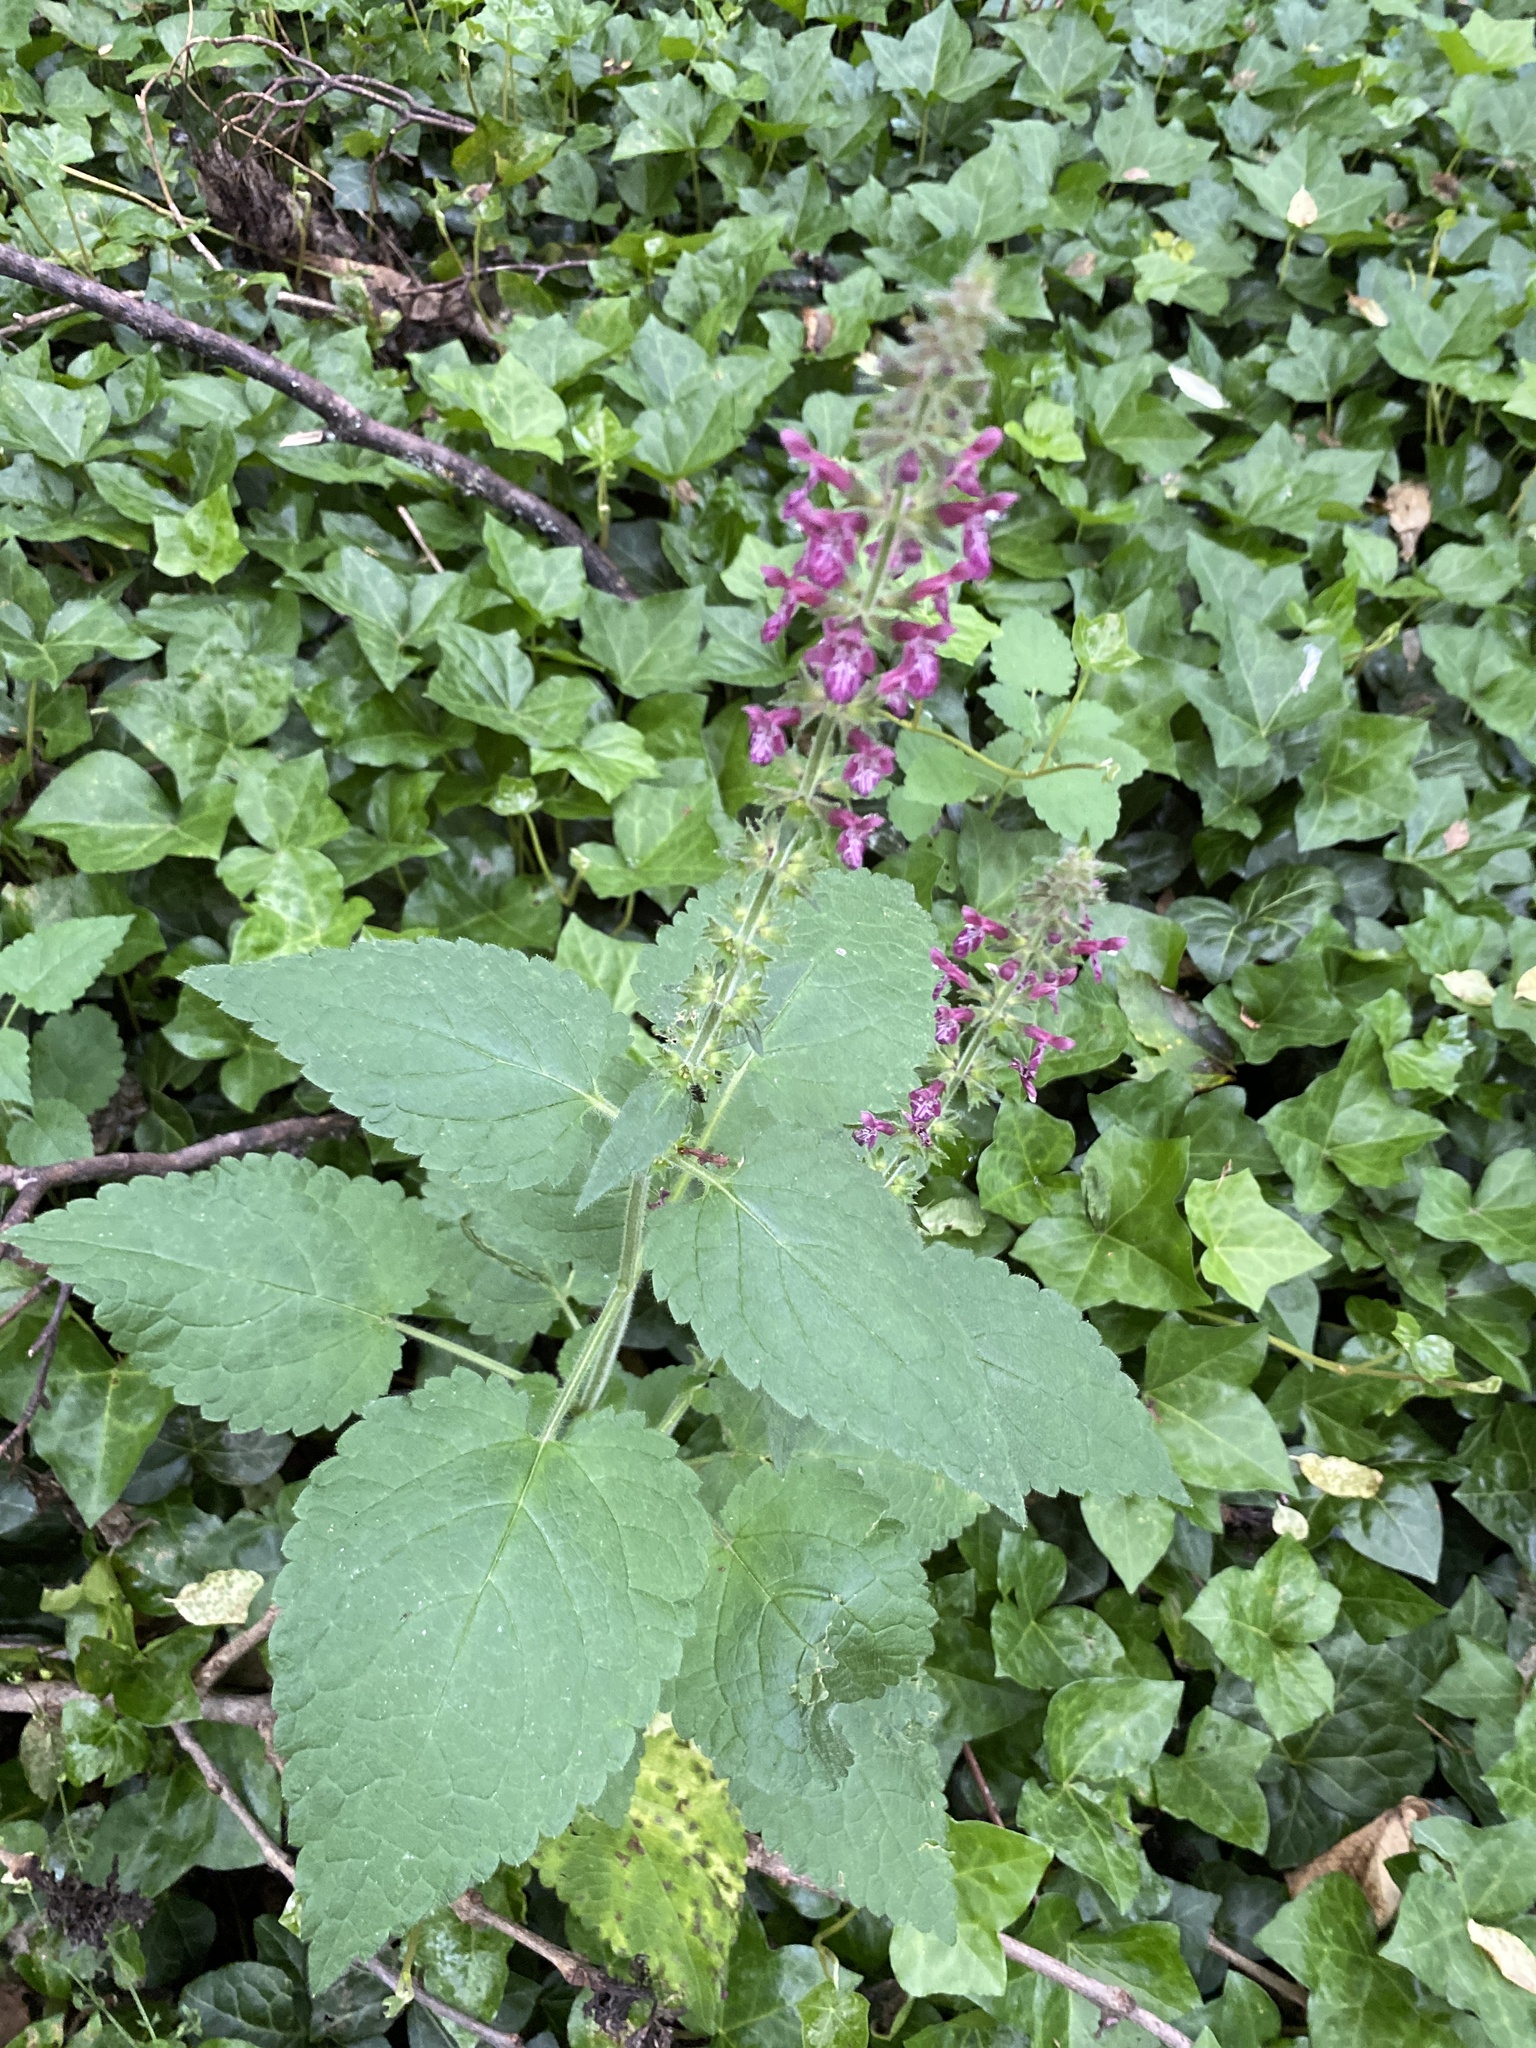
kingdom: Plantae
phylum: Tracheophyta
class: Magnoliopsida
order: Lamiales
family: Lamiaceae
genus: Stachys
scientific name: Stachys sylvatica
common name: Hedge woundwort
